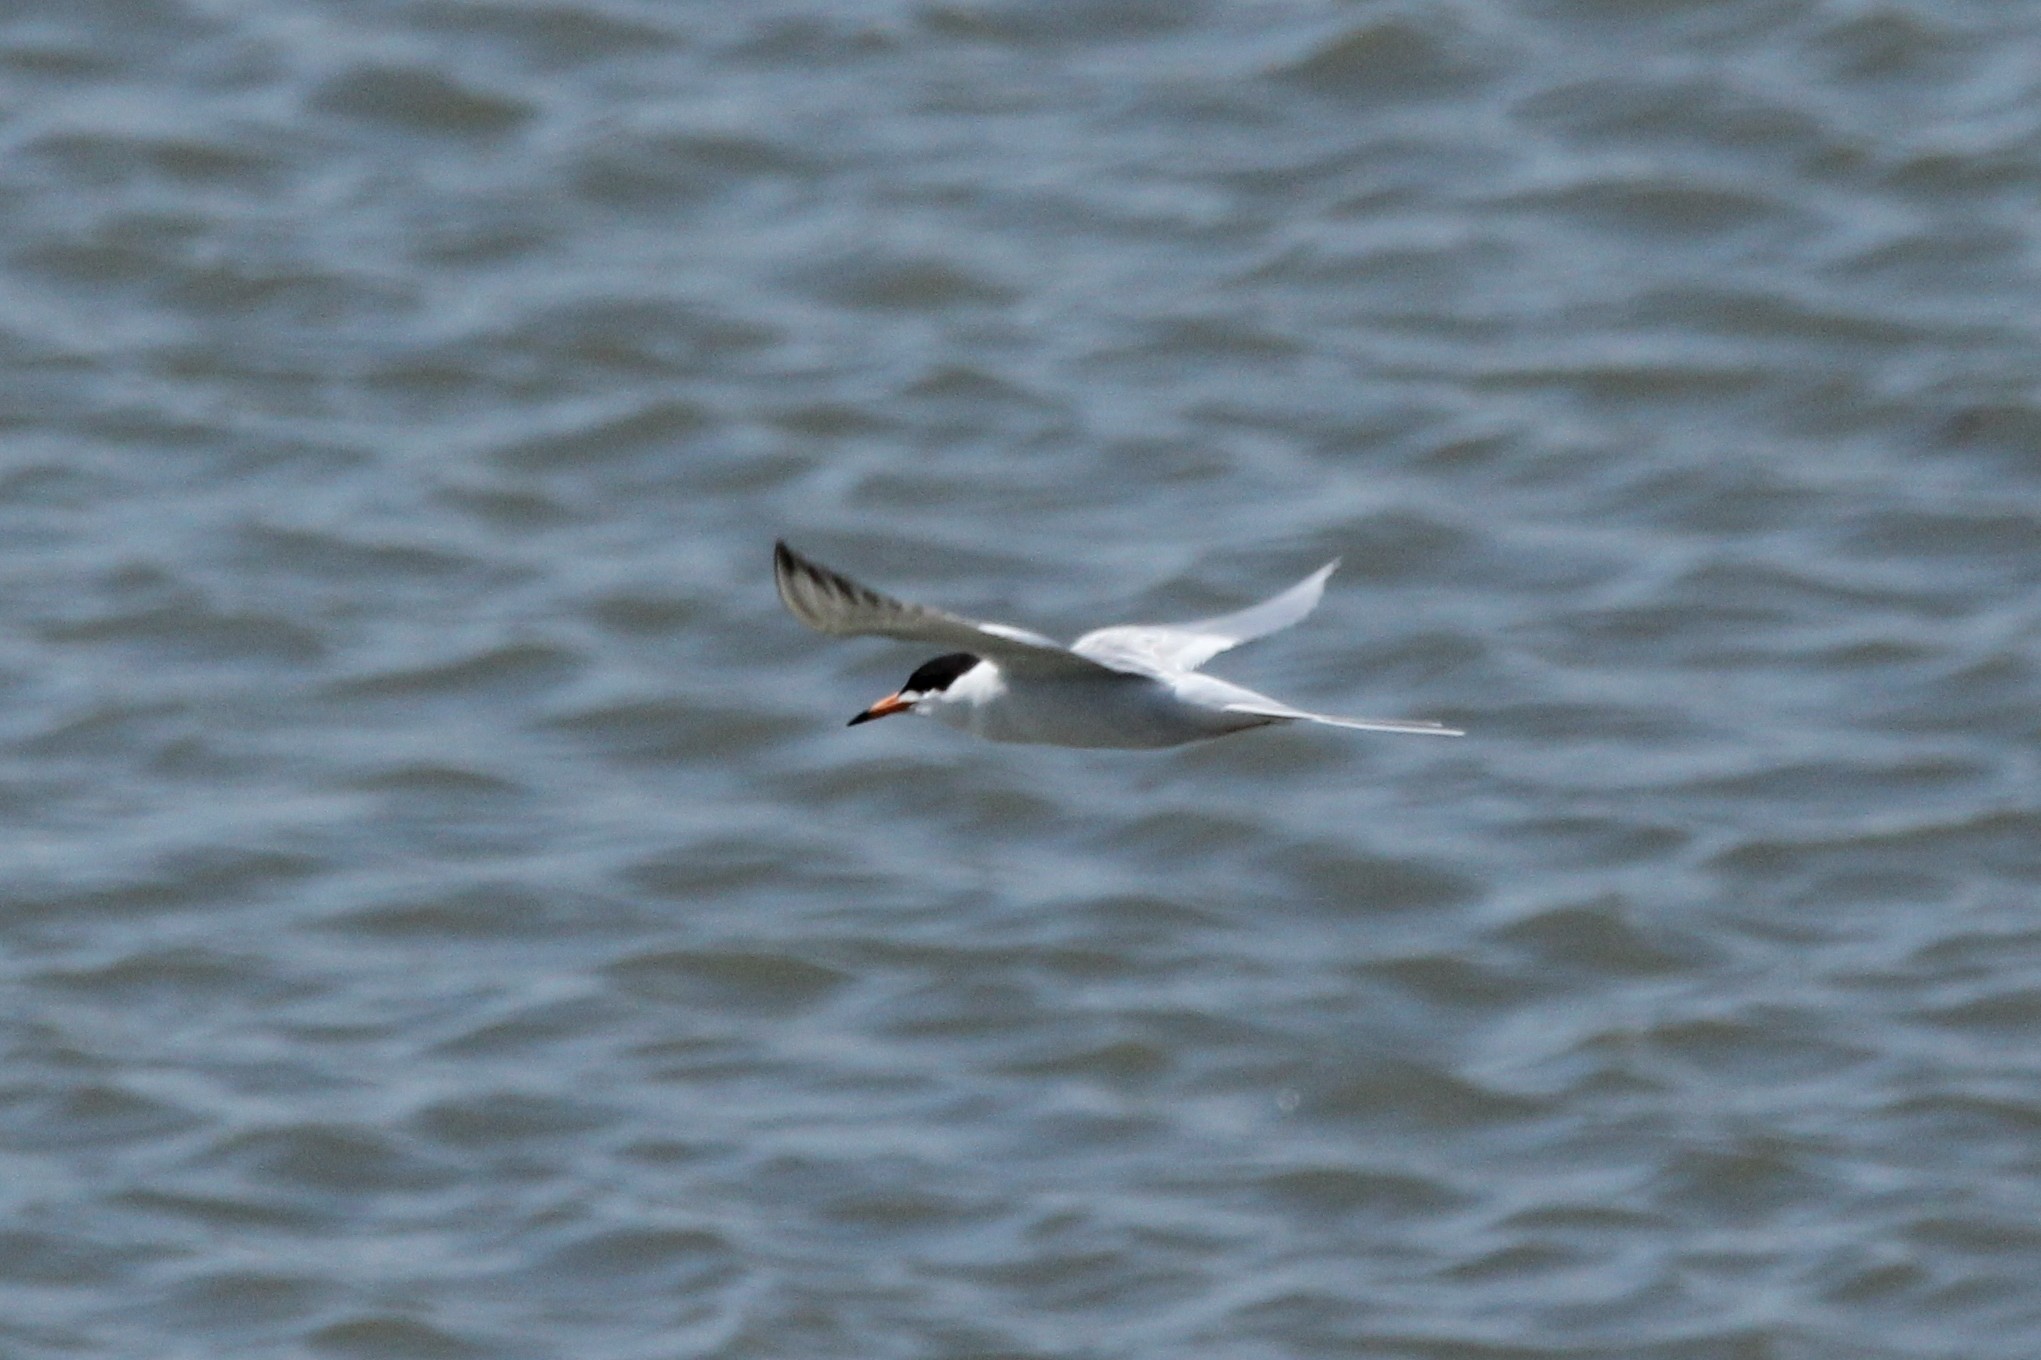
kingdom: Animalia
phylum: Chordata
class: Aves
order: Charadriiformes
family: Laridae
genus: Sterna
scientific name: Sterna forsteri
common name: Forster's tern
